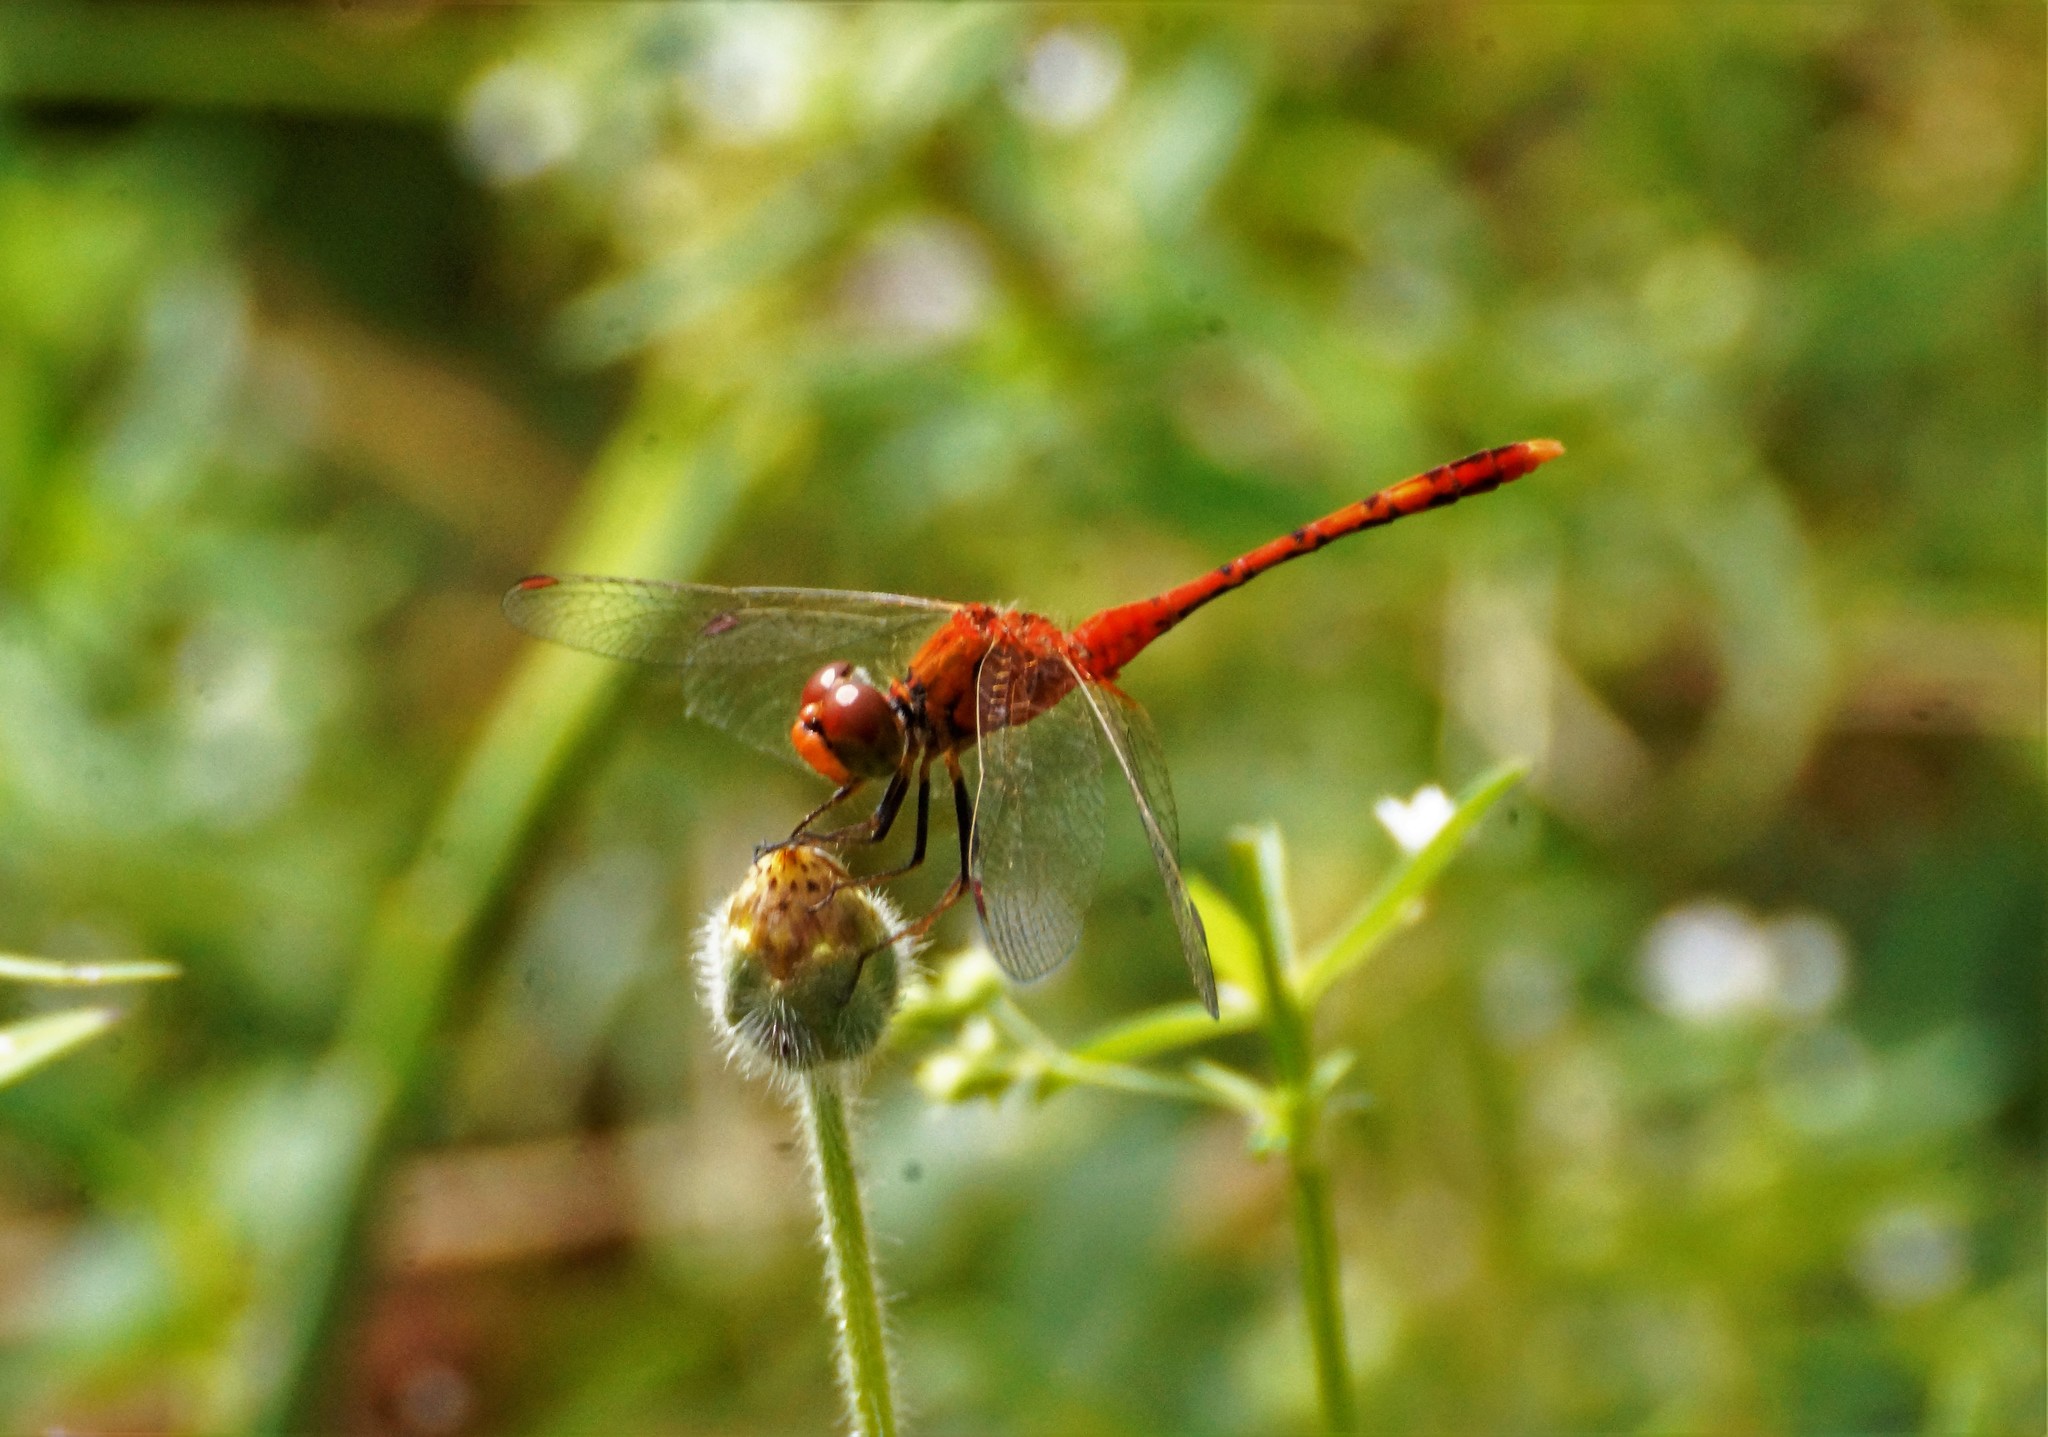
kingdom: Animalia
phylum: Arthropoda
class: Insecta
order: Odonata
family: Libellulidae
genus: Diplacodes
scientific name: Diplacodes bipunctata
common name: Red percher dragonfly
